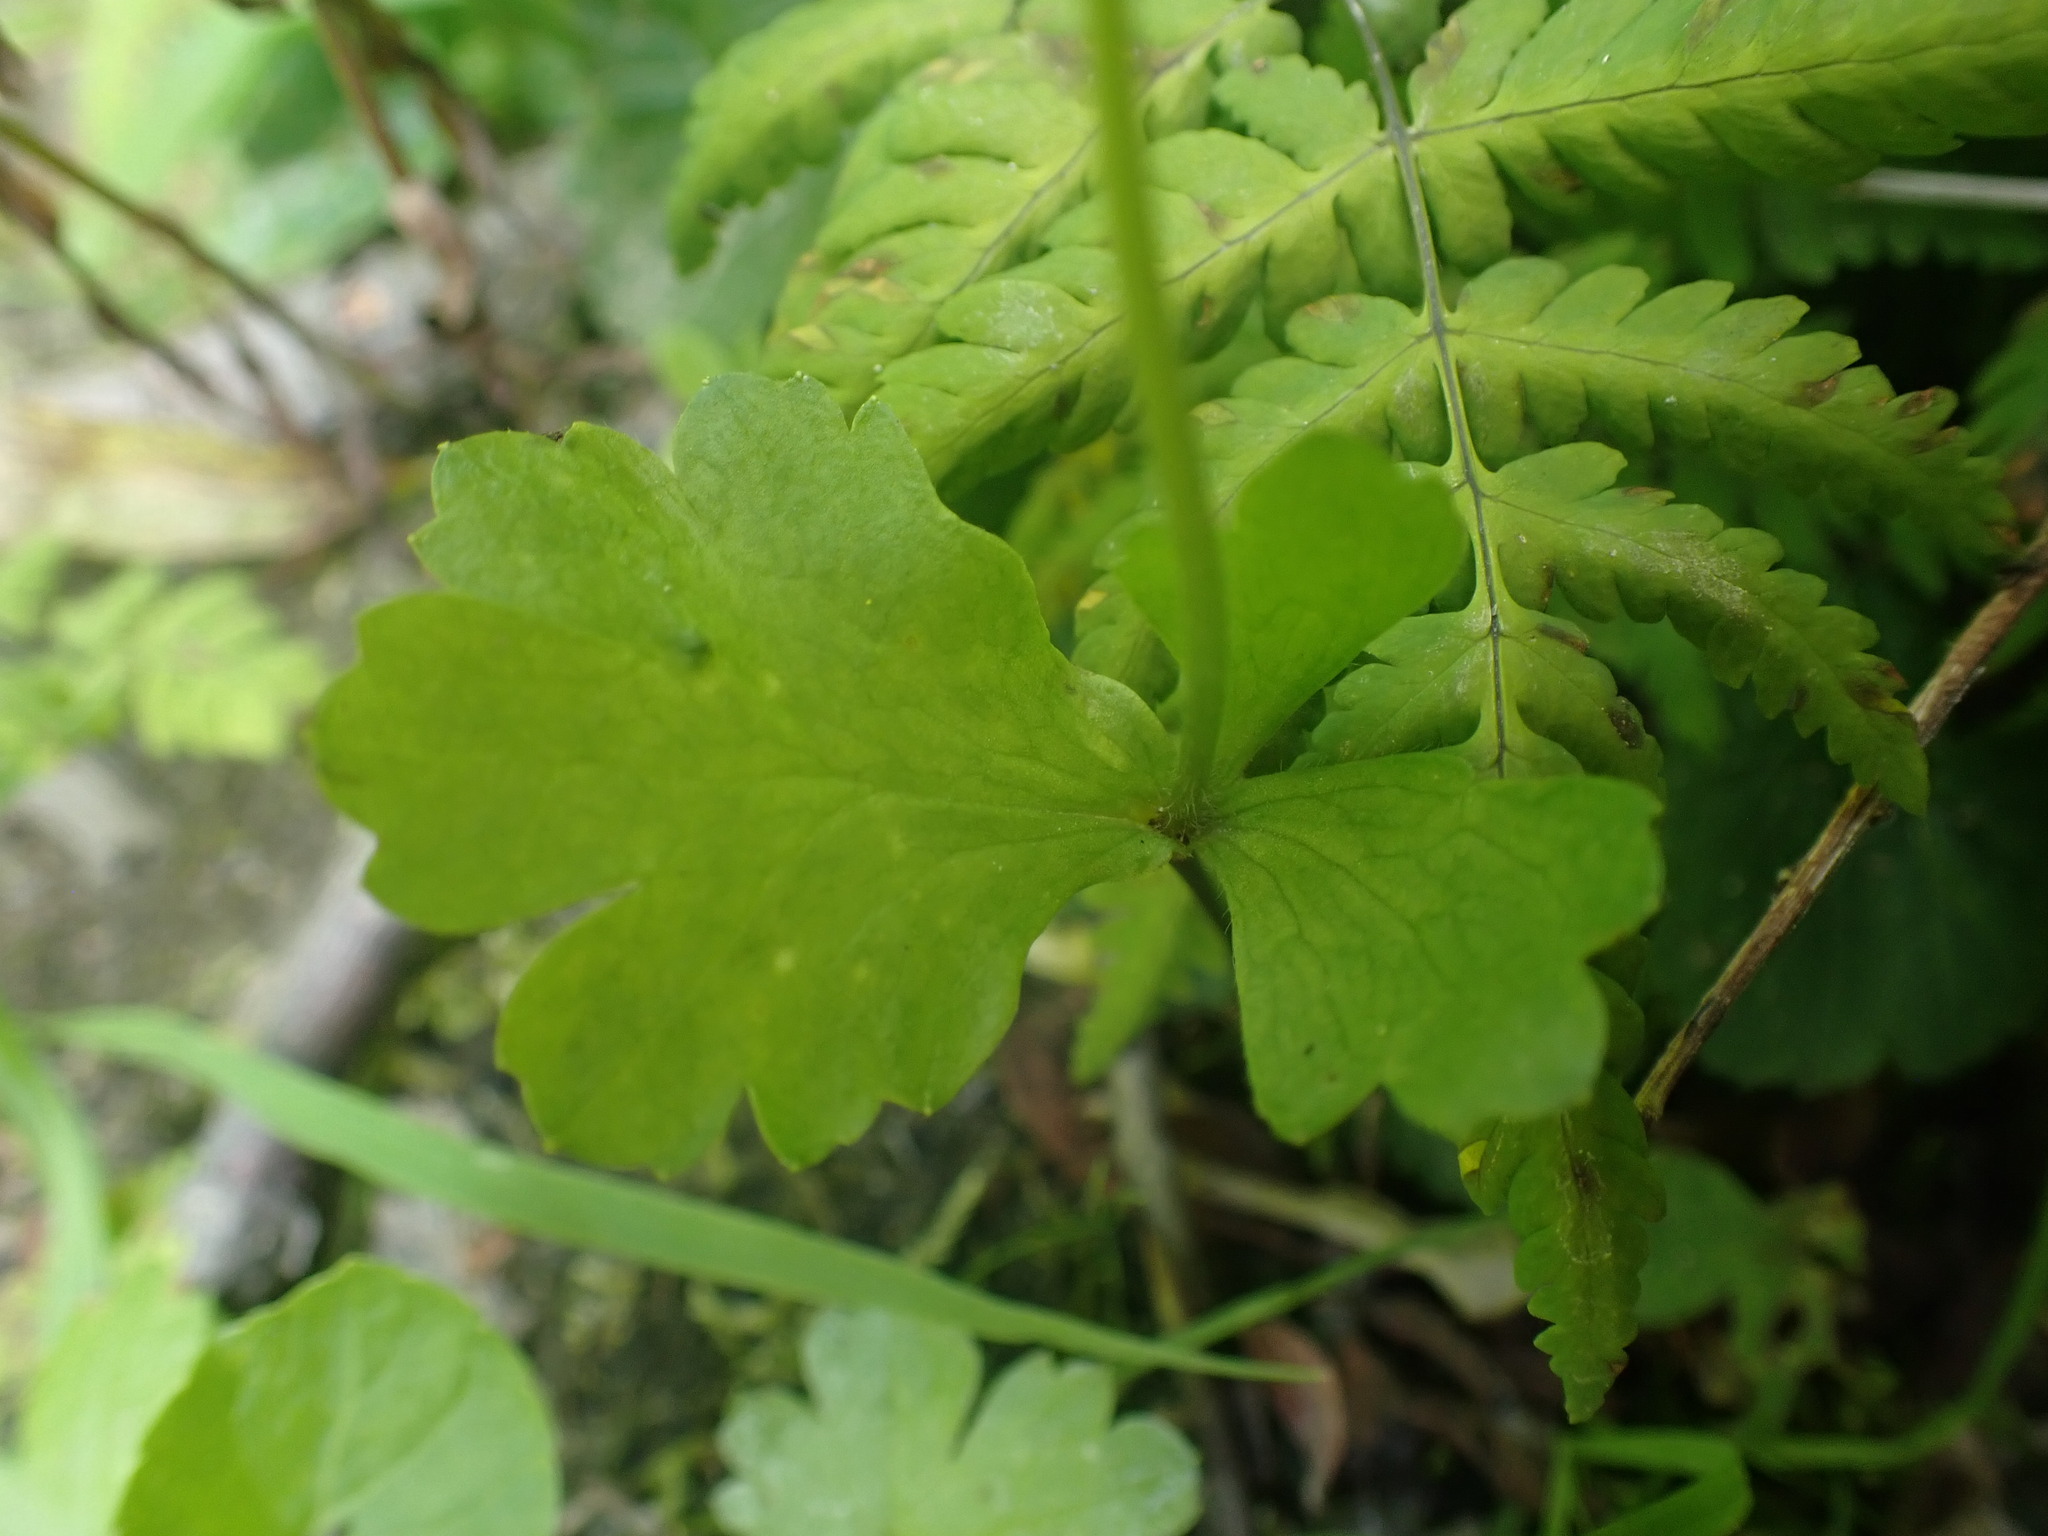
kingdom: Plantae
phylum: Tracheophyta
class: Magnoliopsida
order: Ranunculales
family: Ranunculaceae
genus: Anemonastrum
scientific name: Anemonastrum richardsonii
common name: Richardson's anemone
